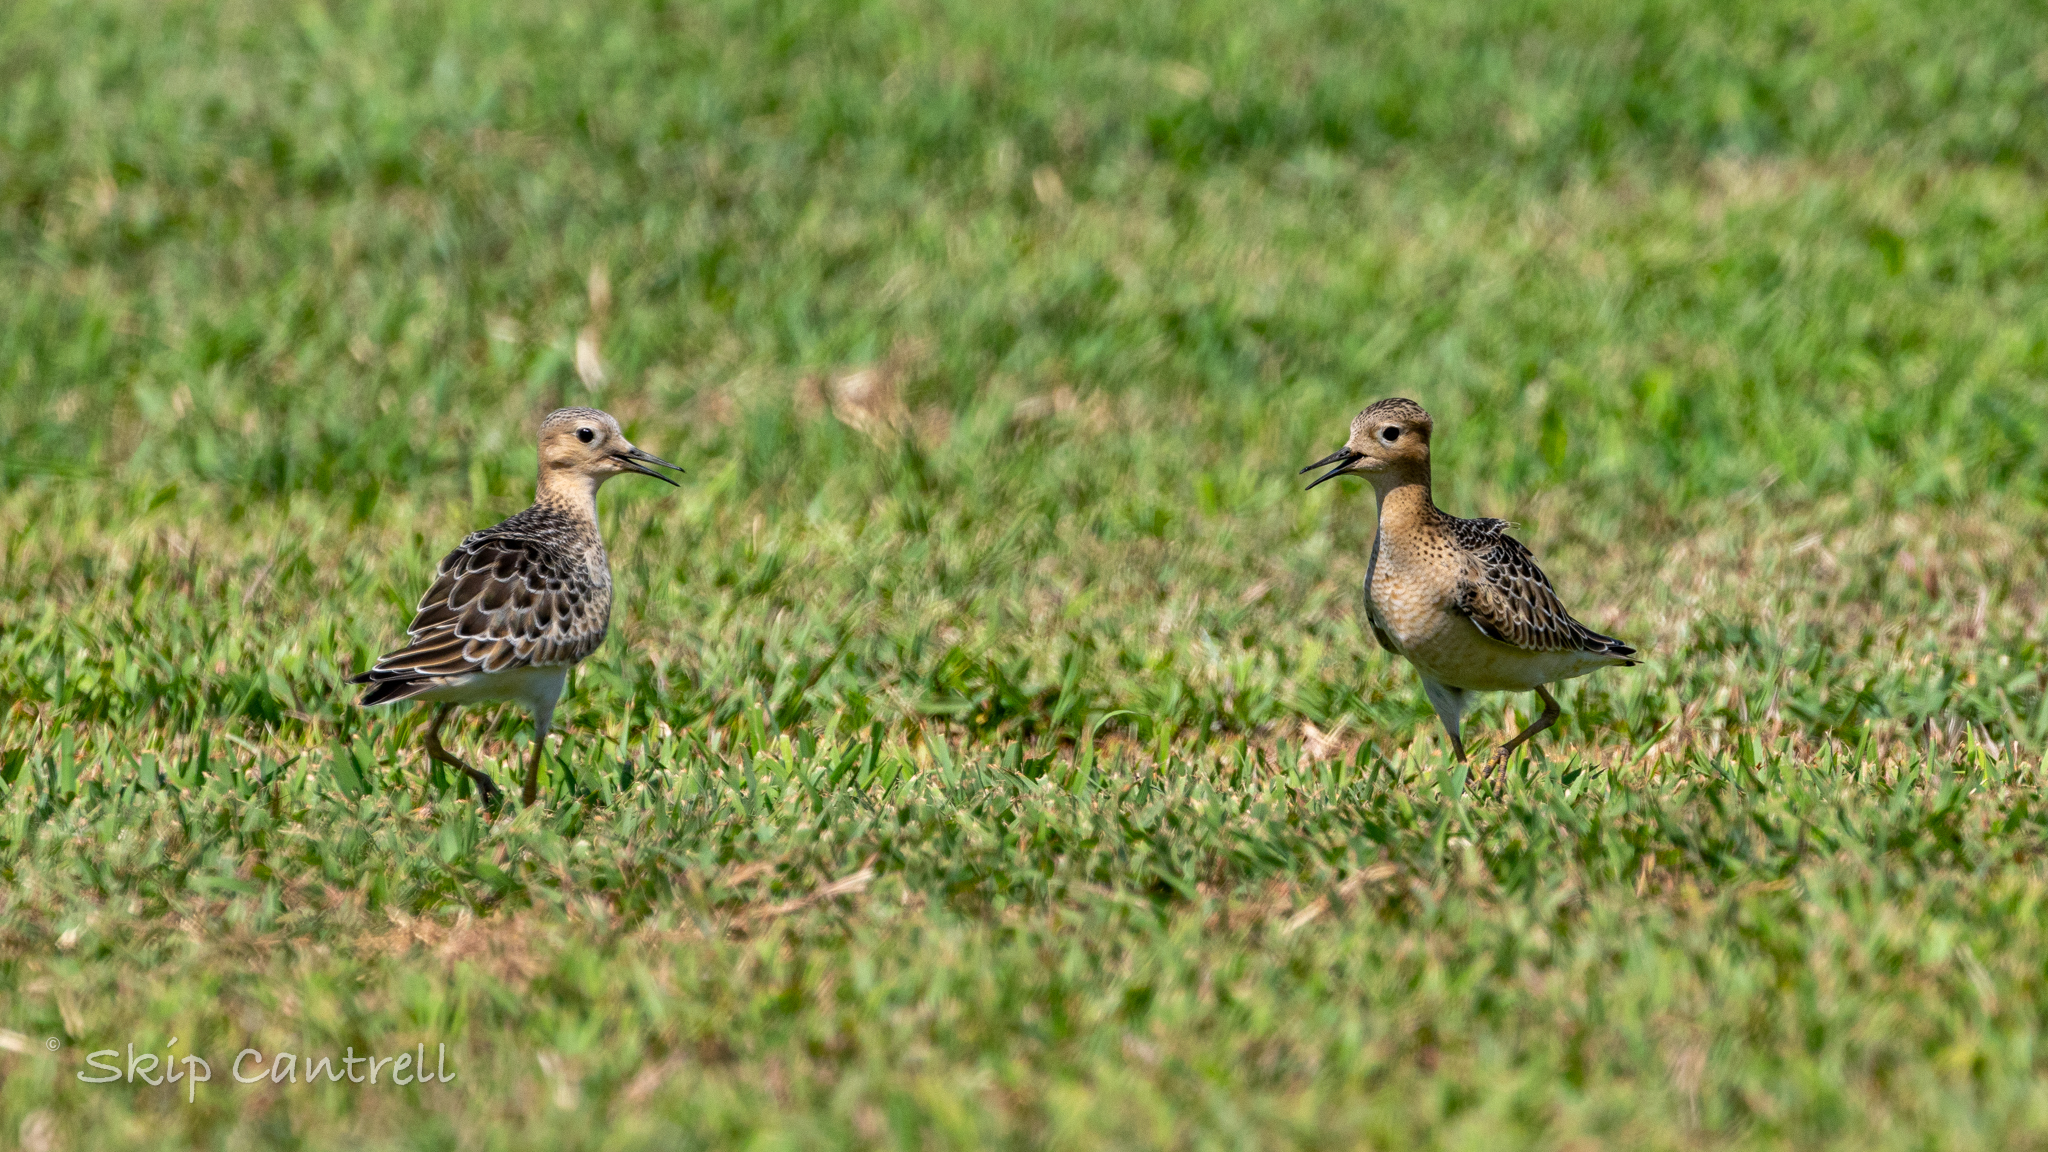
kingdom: Animalia
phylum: Chordata
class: Aves
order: Charadriiformes
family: Scolopacidae
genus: Calidris
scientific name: Calidris subruficollis
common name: Buff-breasted sandpiper
